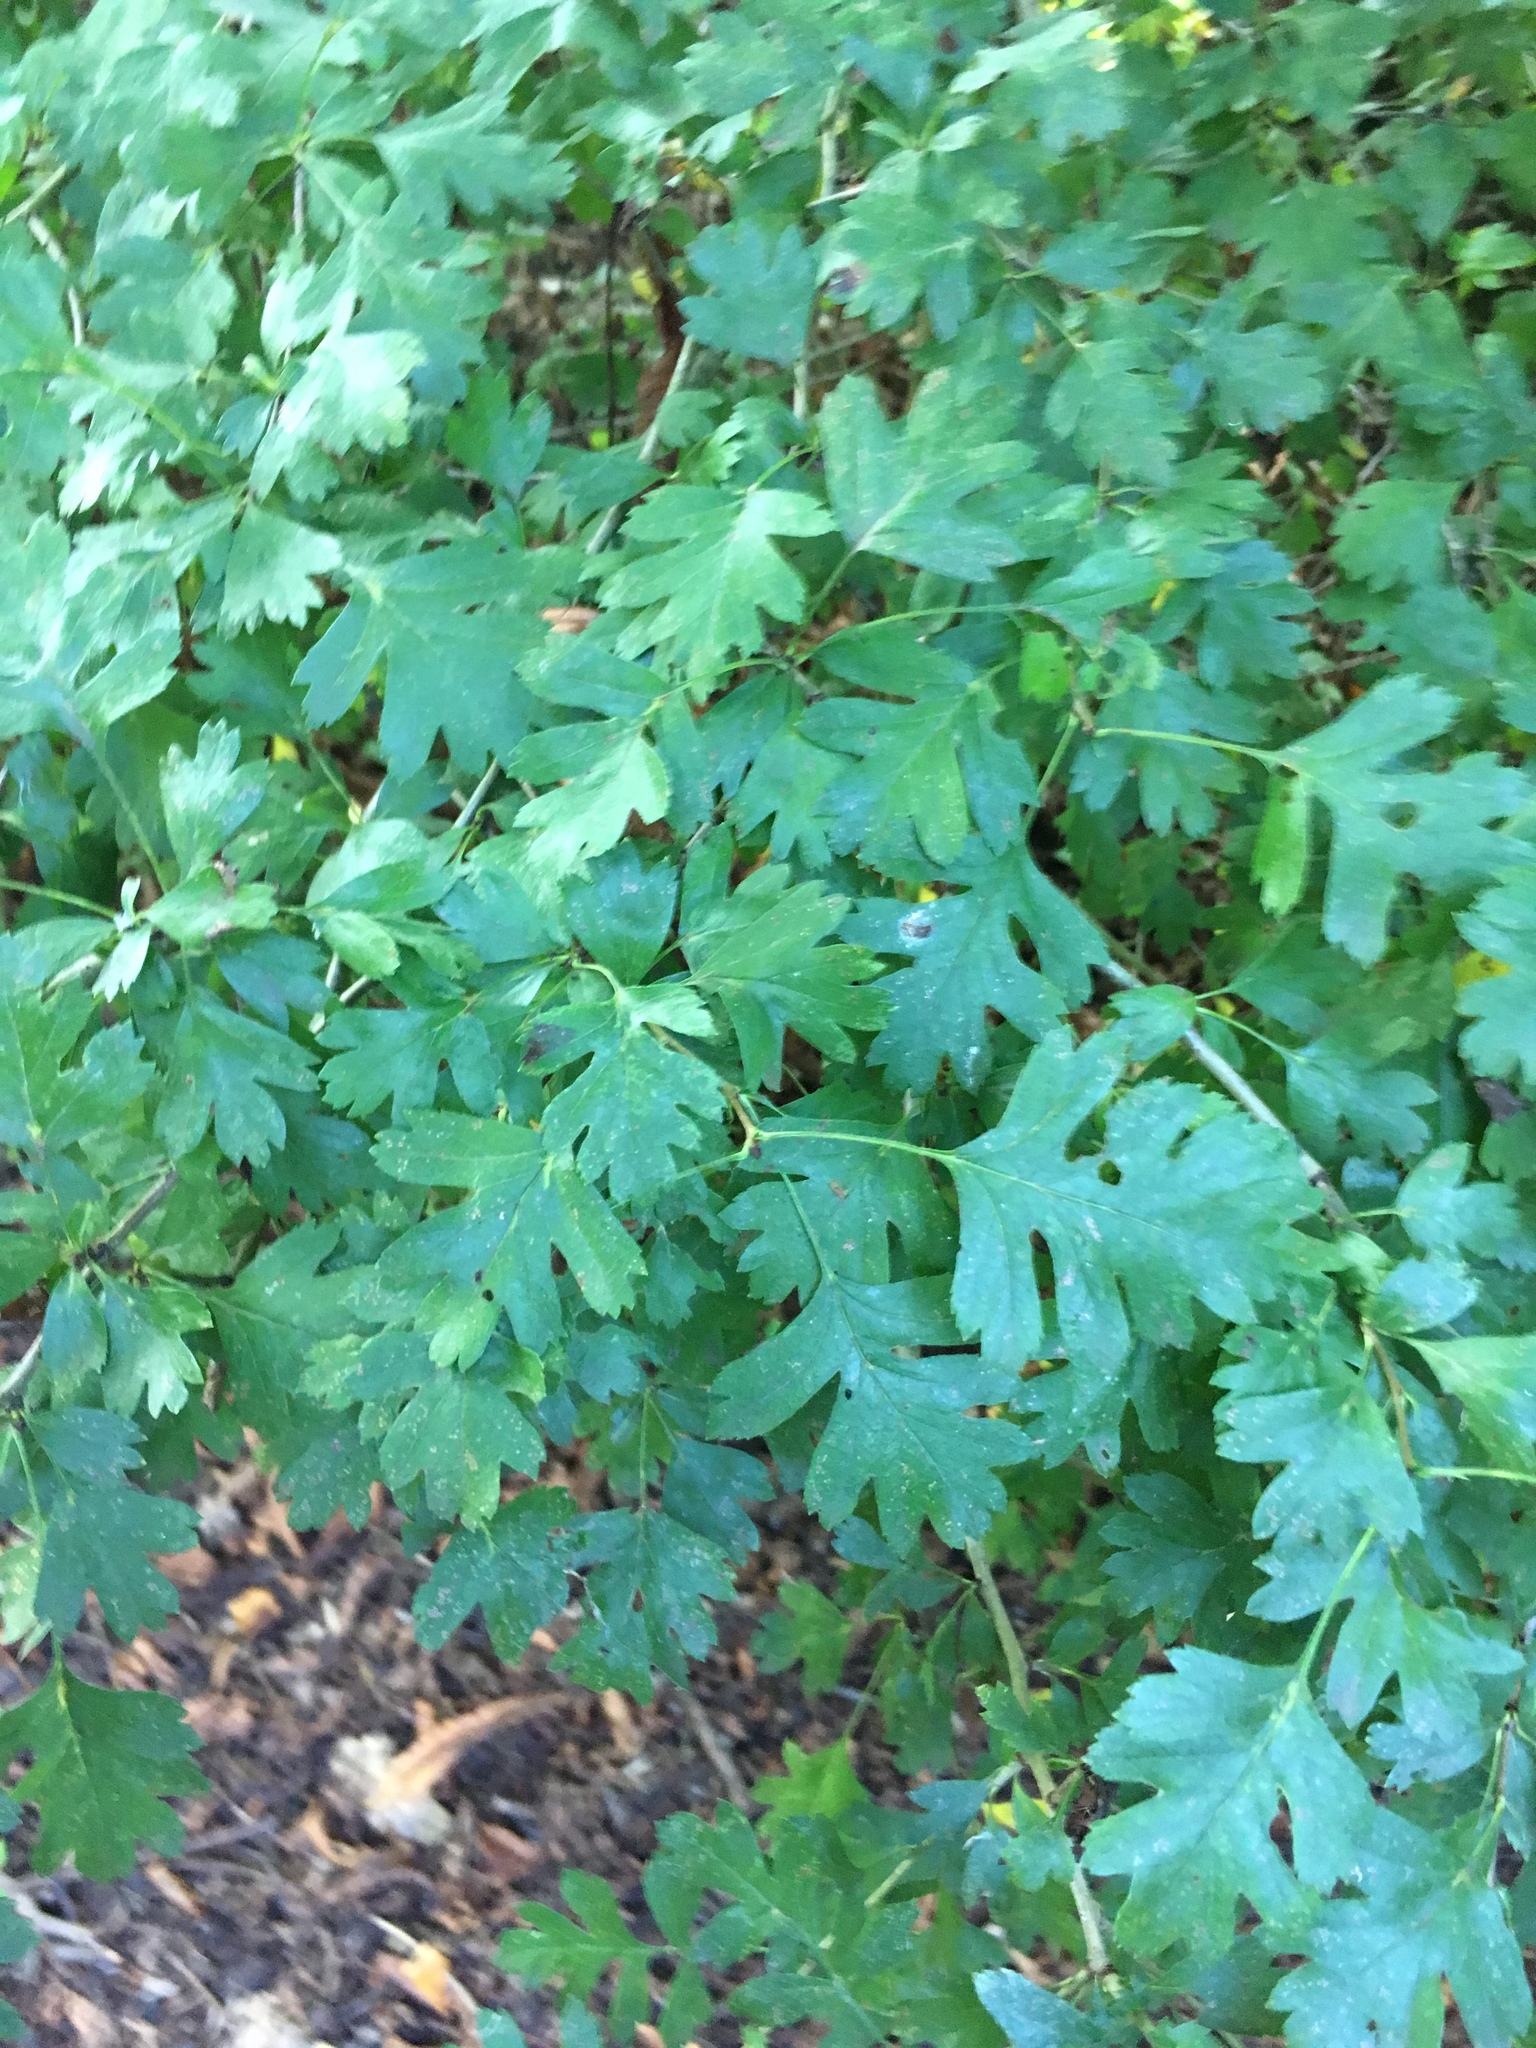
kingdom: Plantae
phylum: Tracheophyta
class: Magnoliopsida
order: Rosales
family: Rosaceae
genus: Crataegus
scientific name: Crataegus monogyna
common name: Hawthorn
